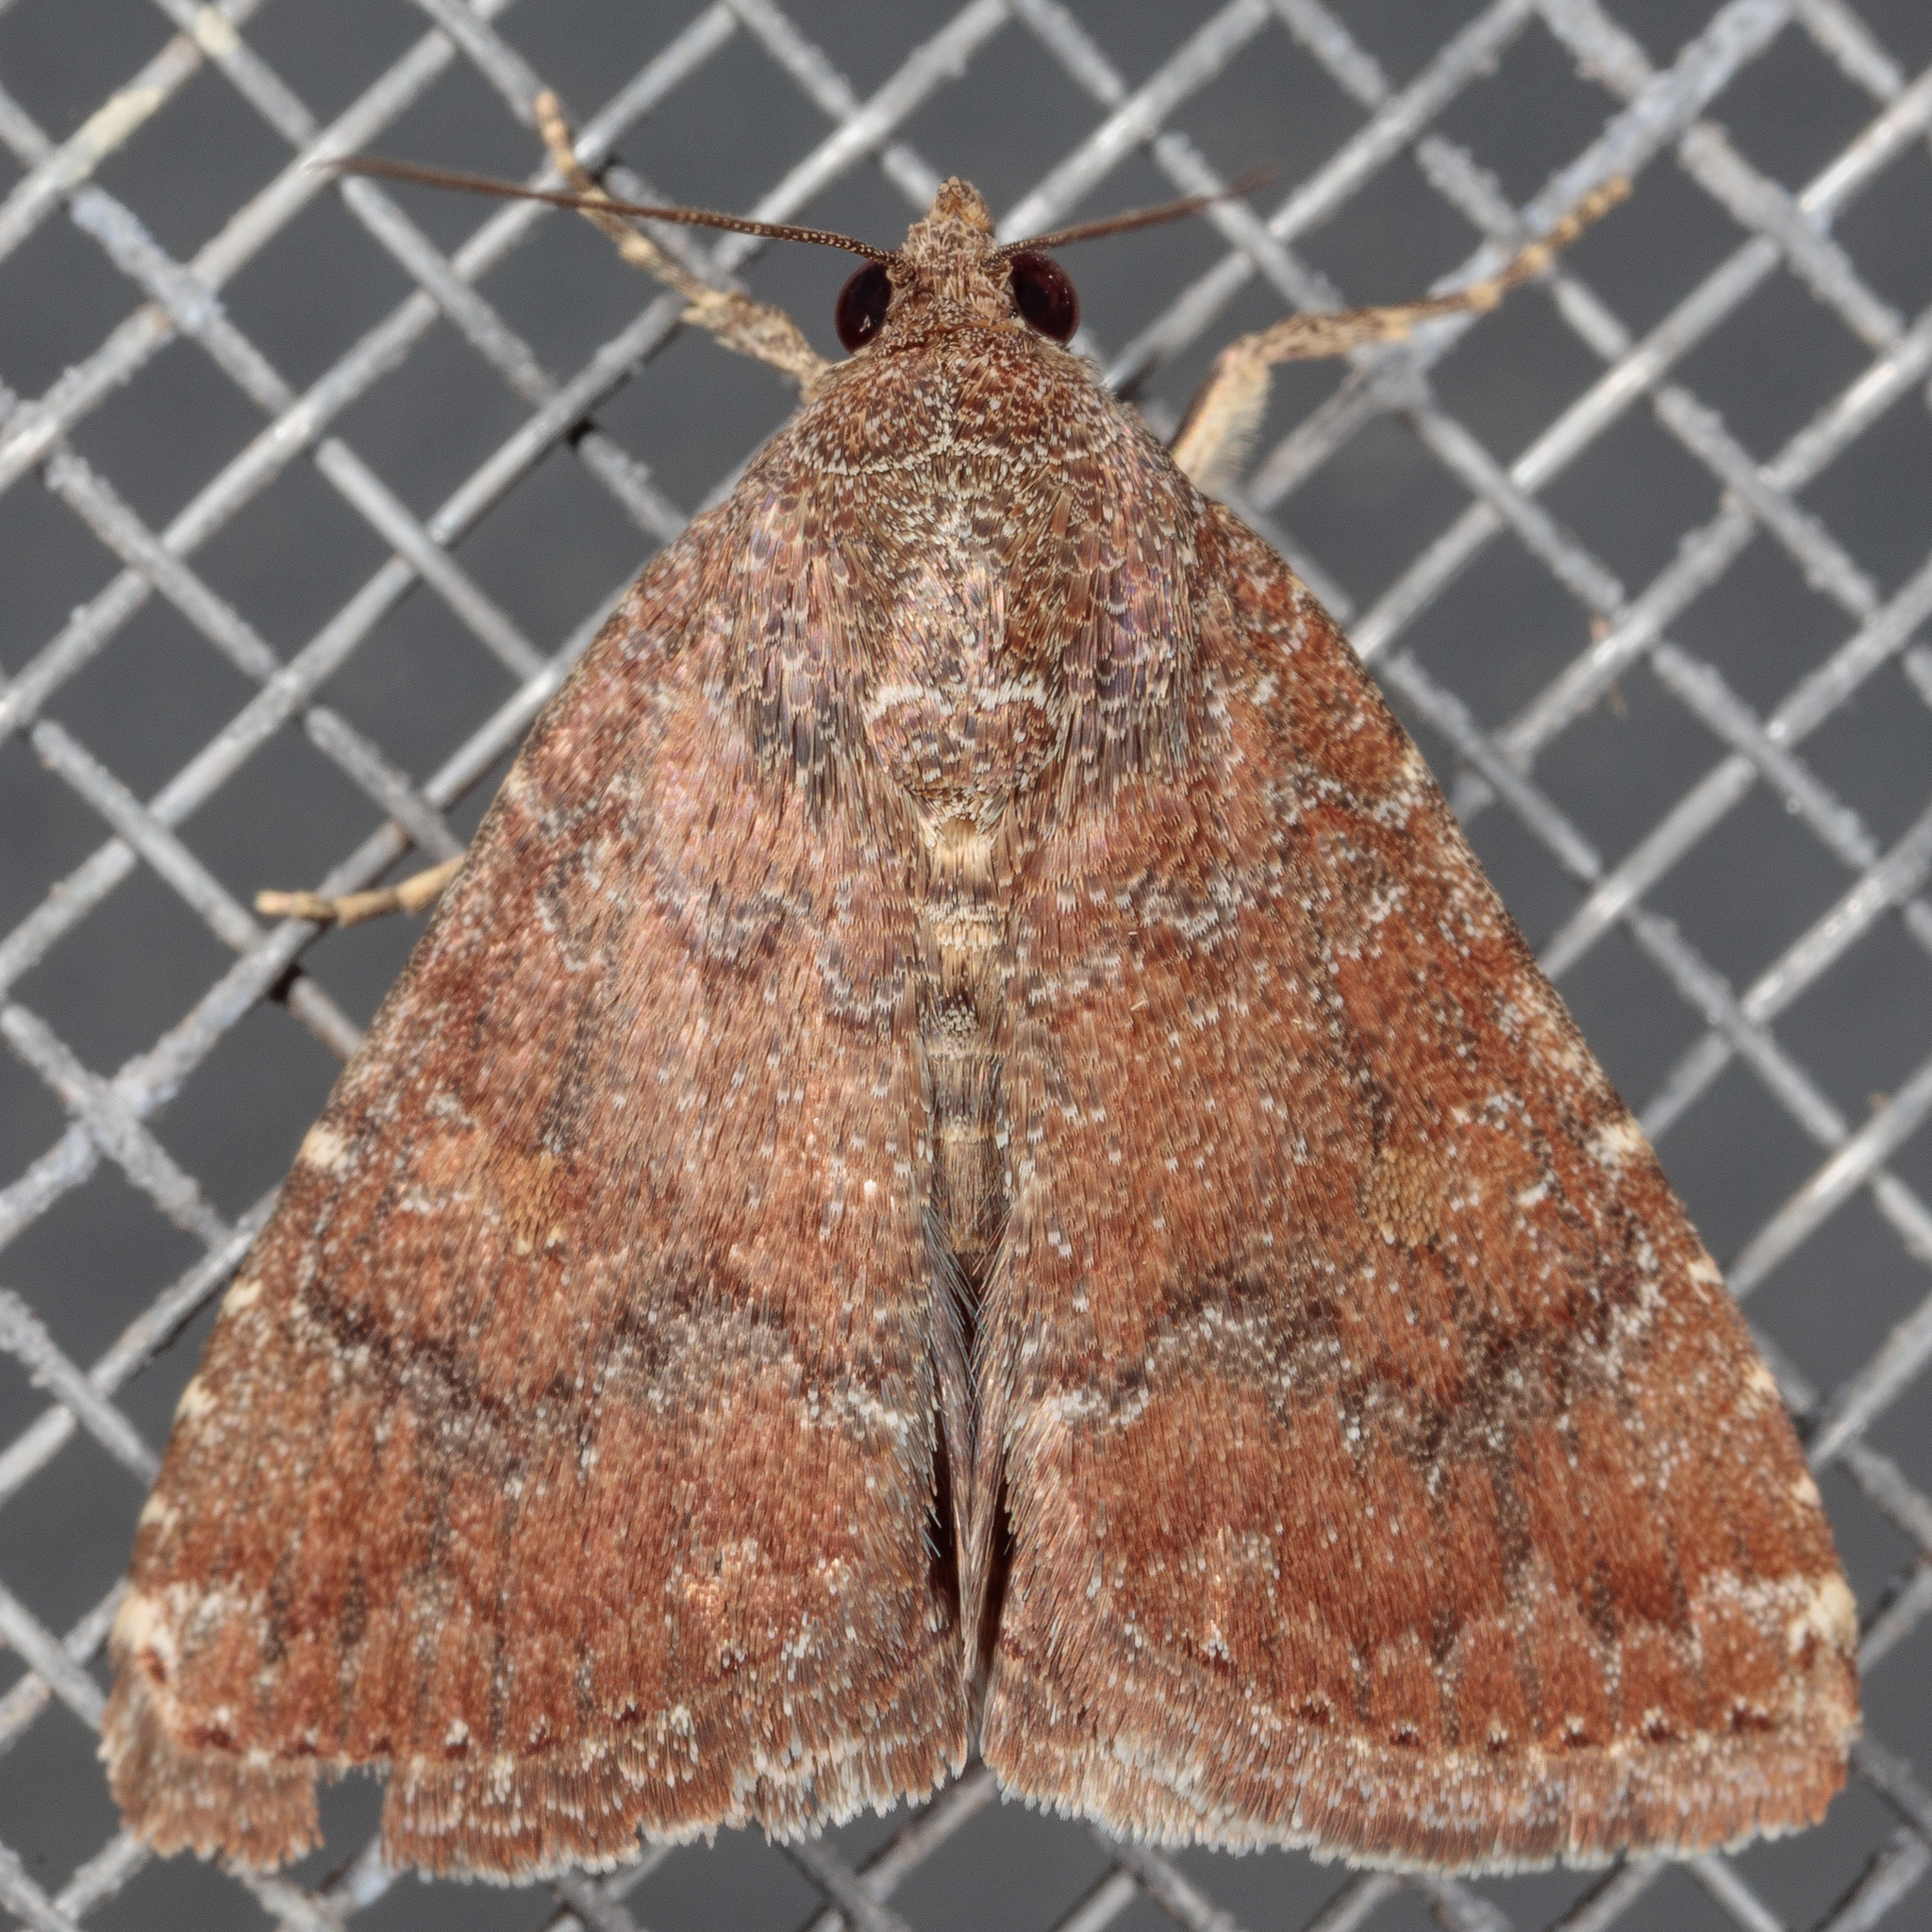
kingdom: Animalia
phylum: Arthropoda
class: Insecta
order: Lepidoptera
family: Noctuidae
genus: Amyna
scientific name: Amyna stricta
